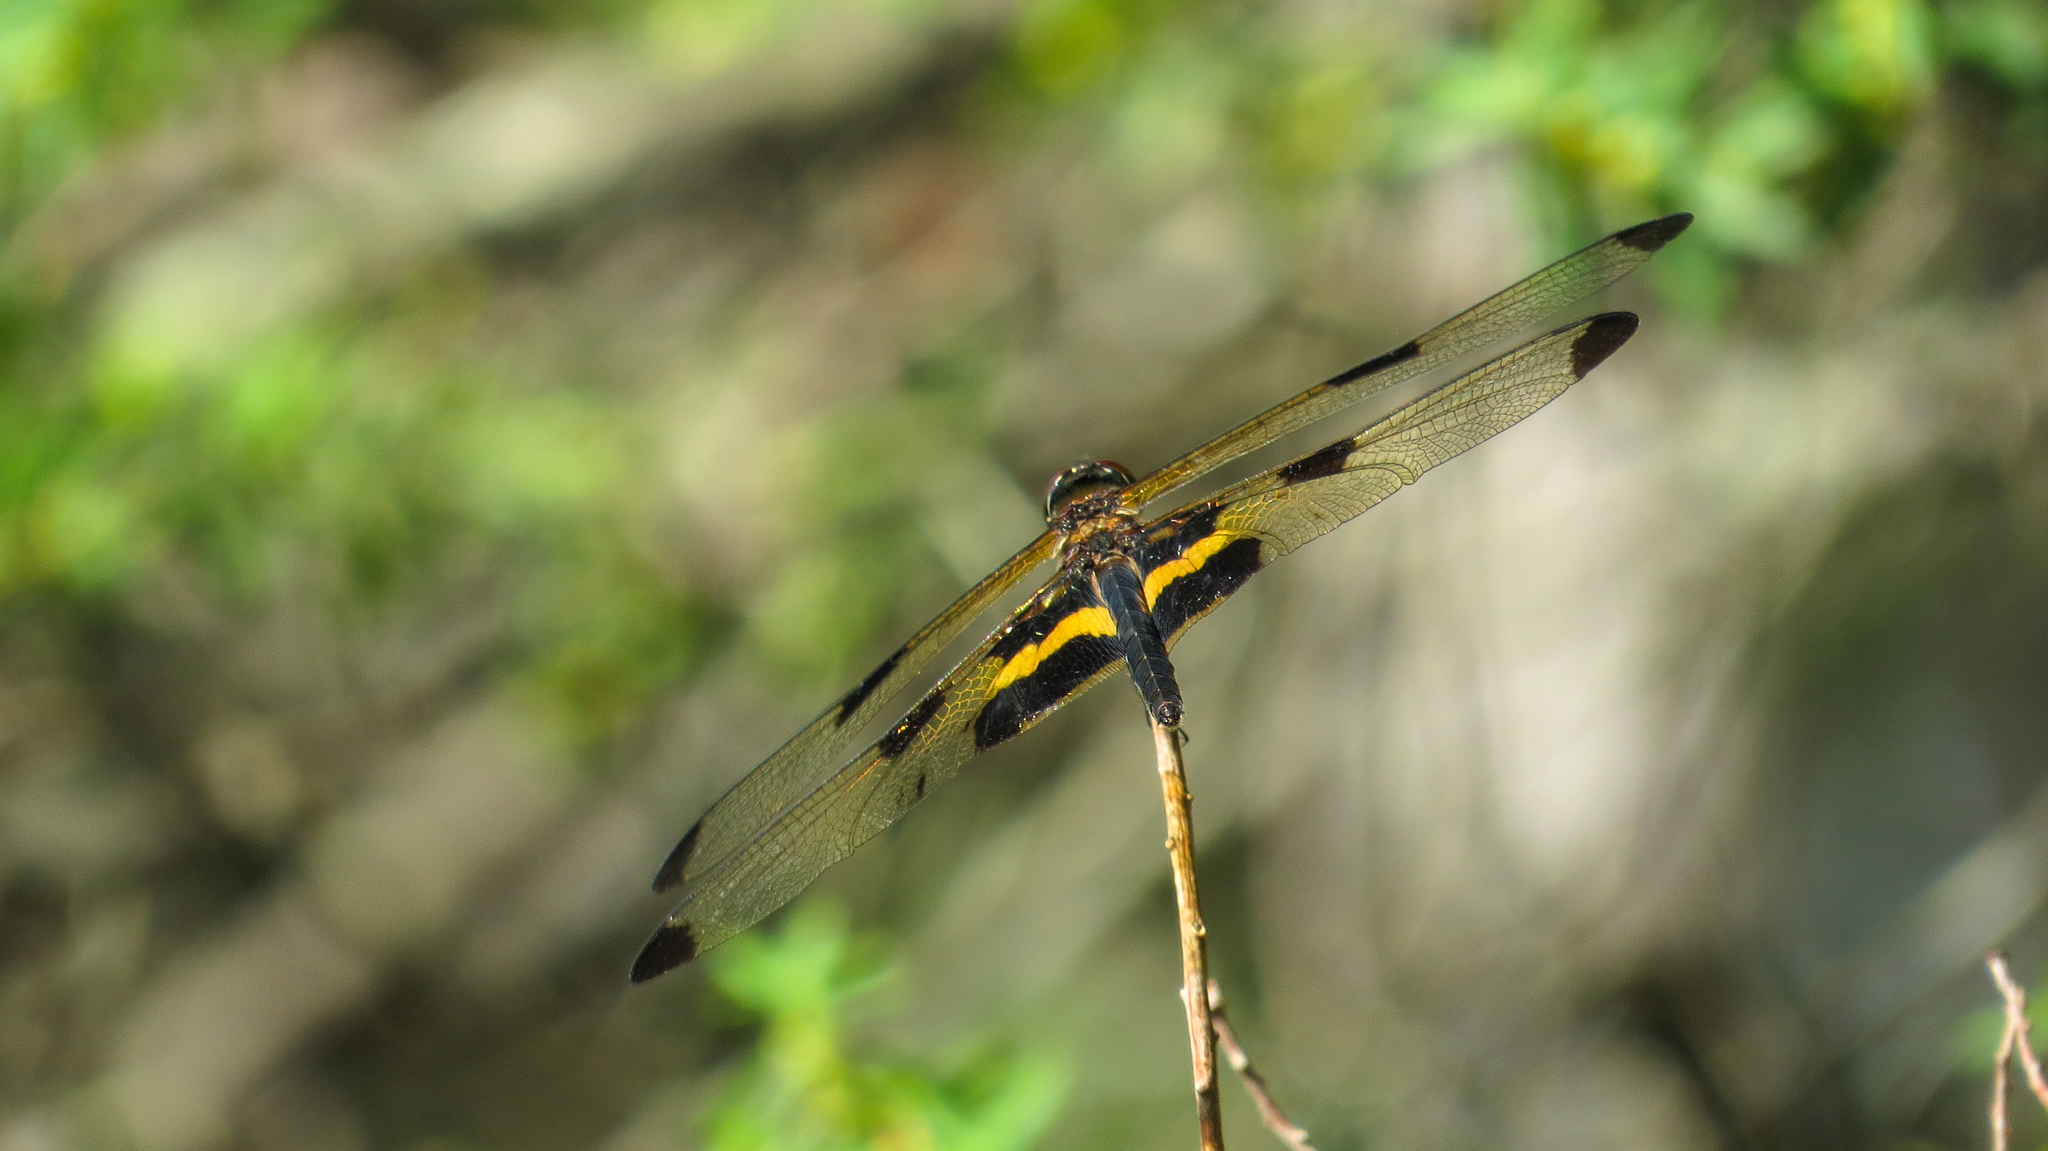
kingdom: Animalia
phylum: Arthropoda
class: Insecta
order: Odonata
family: Libellulidae
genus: Rhyothemis
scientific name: Rhyothemis phyllis
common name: Yellow-barred flutterer
